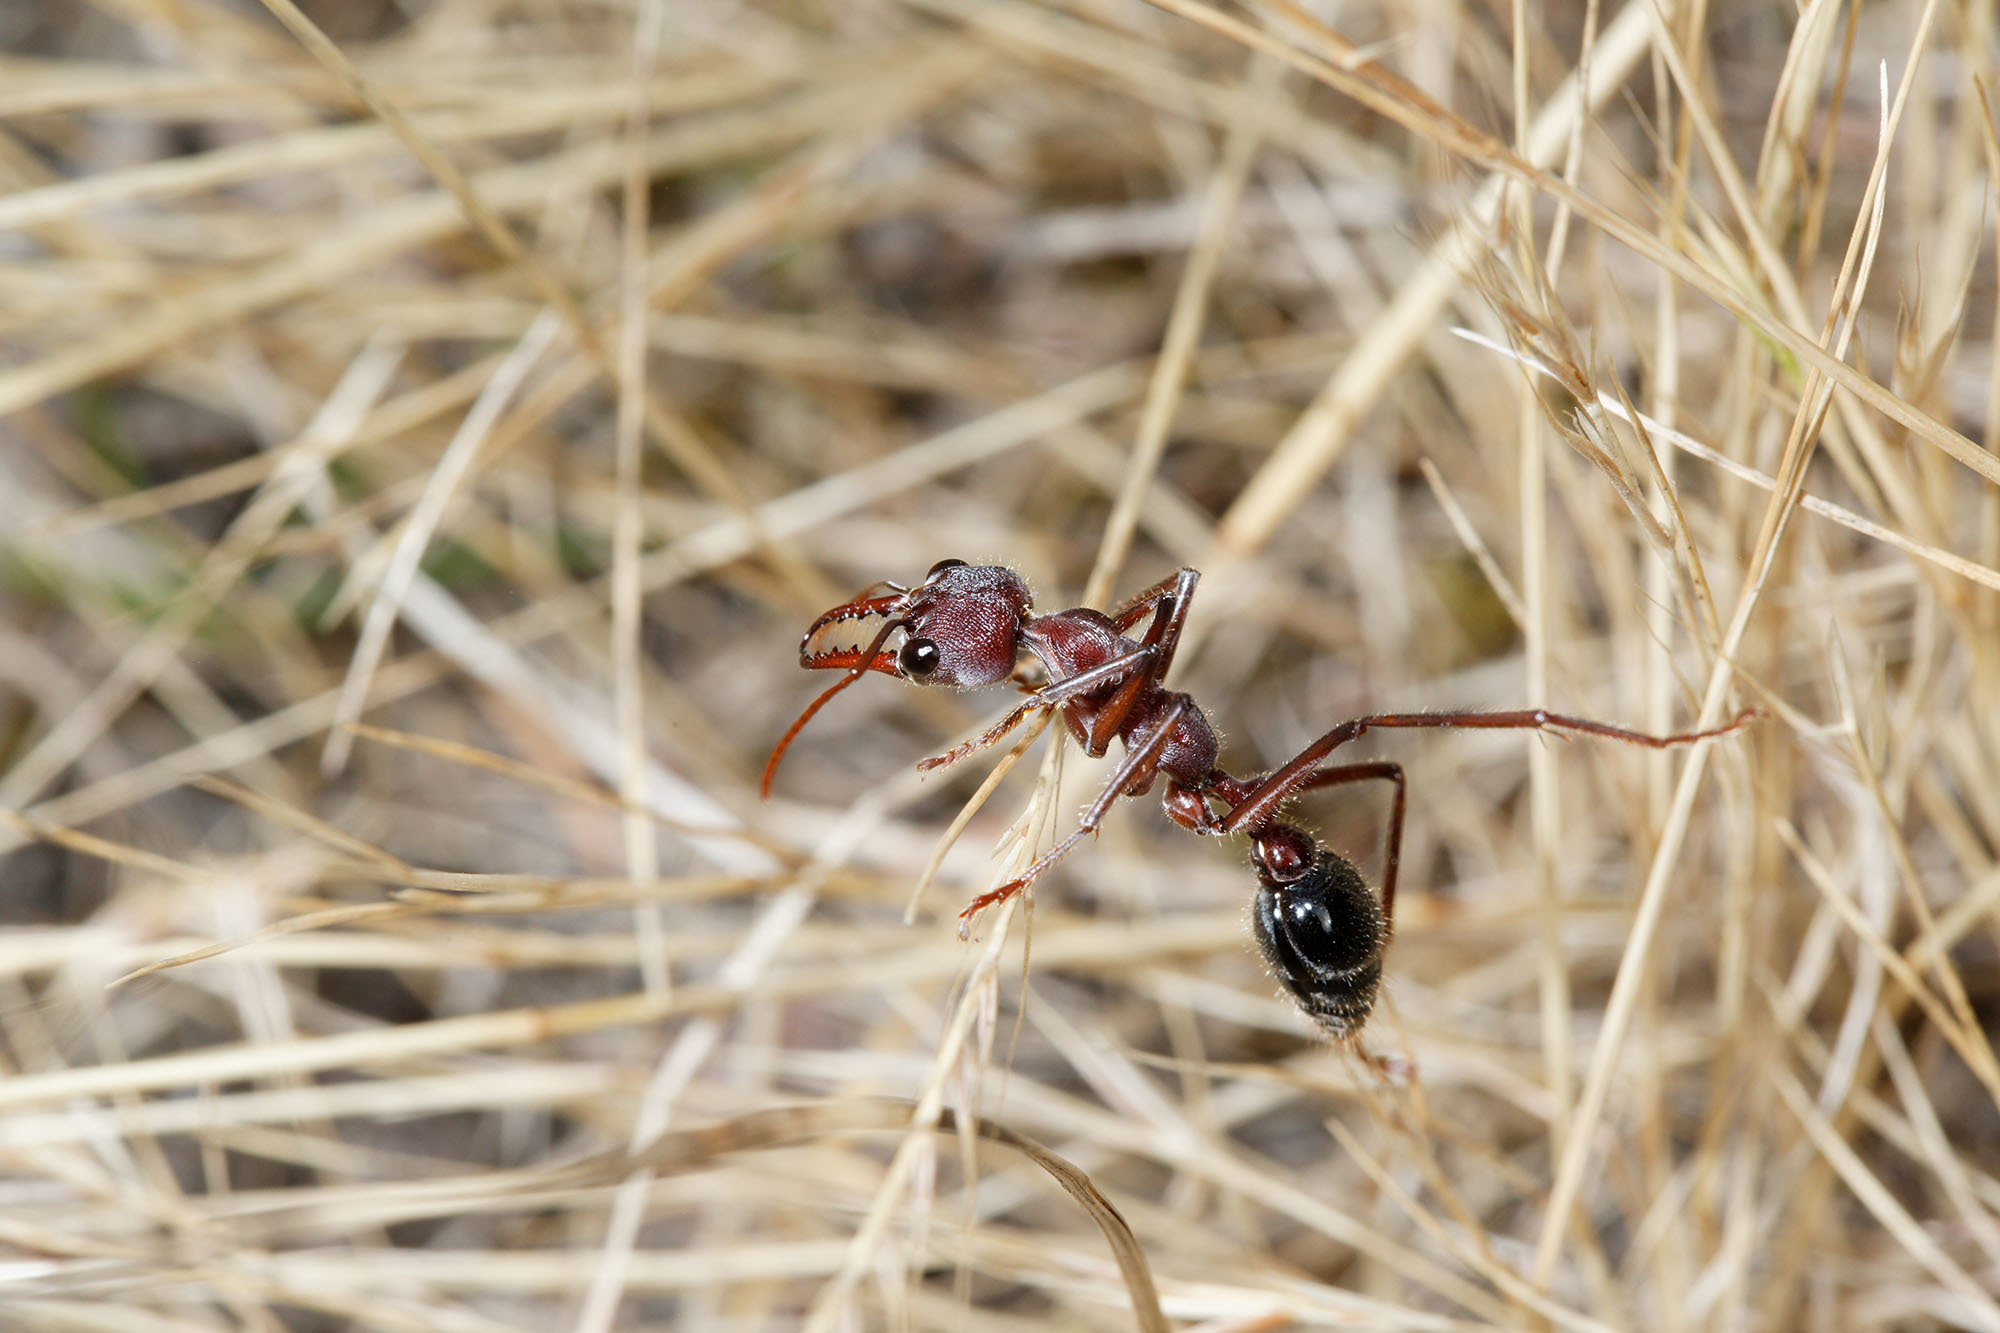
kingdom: Animalia
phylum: Arthropoda
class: Insecta
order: Hymenoptera
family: Formicidae
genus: Myrmecia
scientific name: Myrmecia simillima
